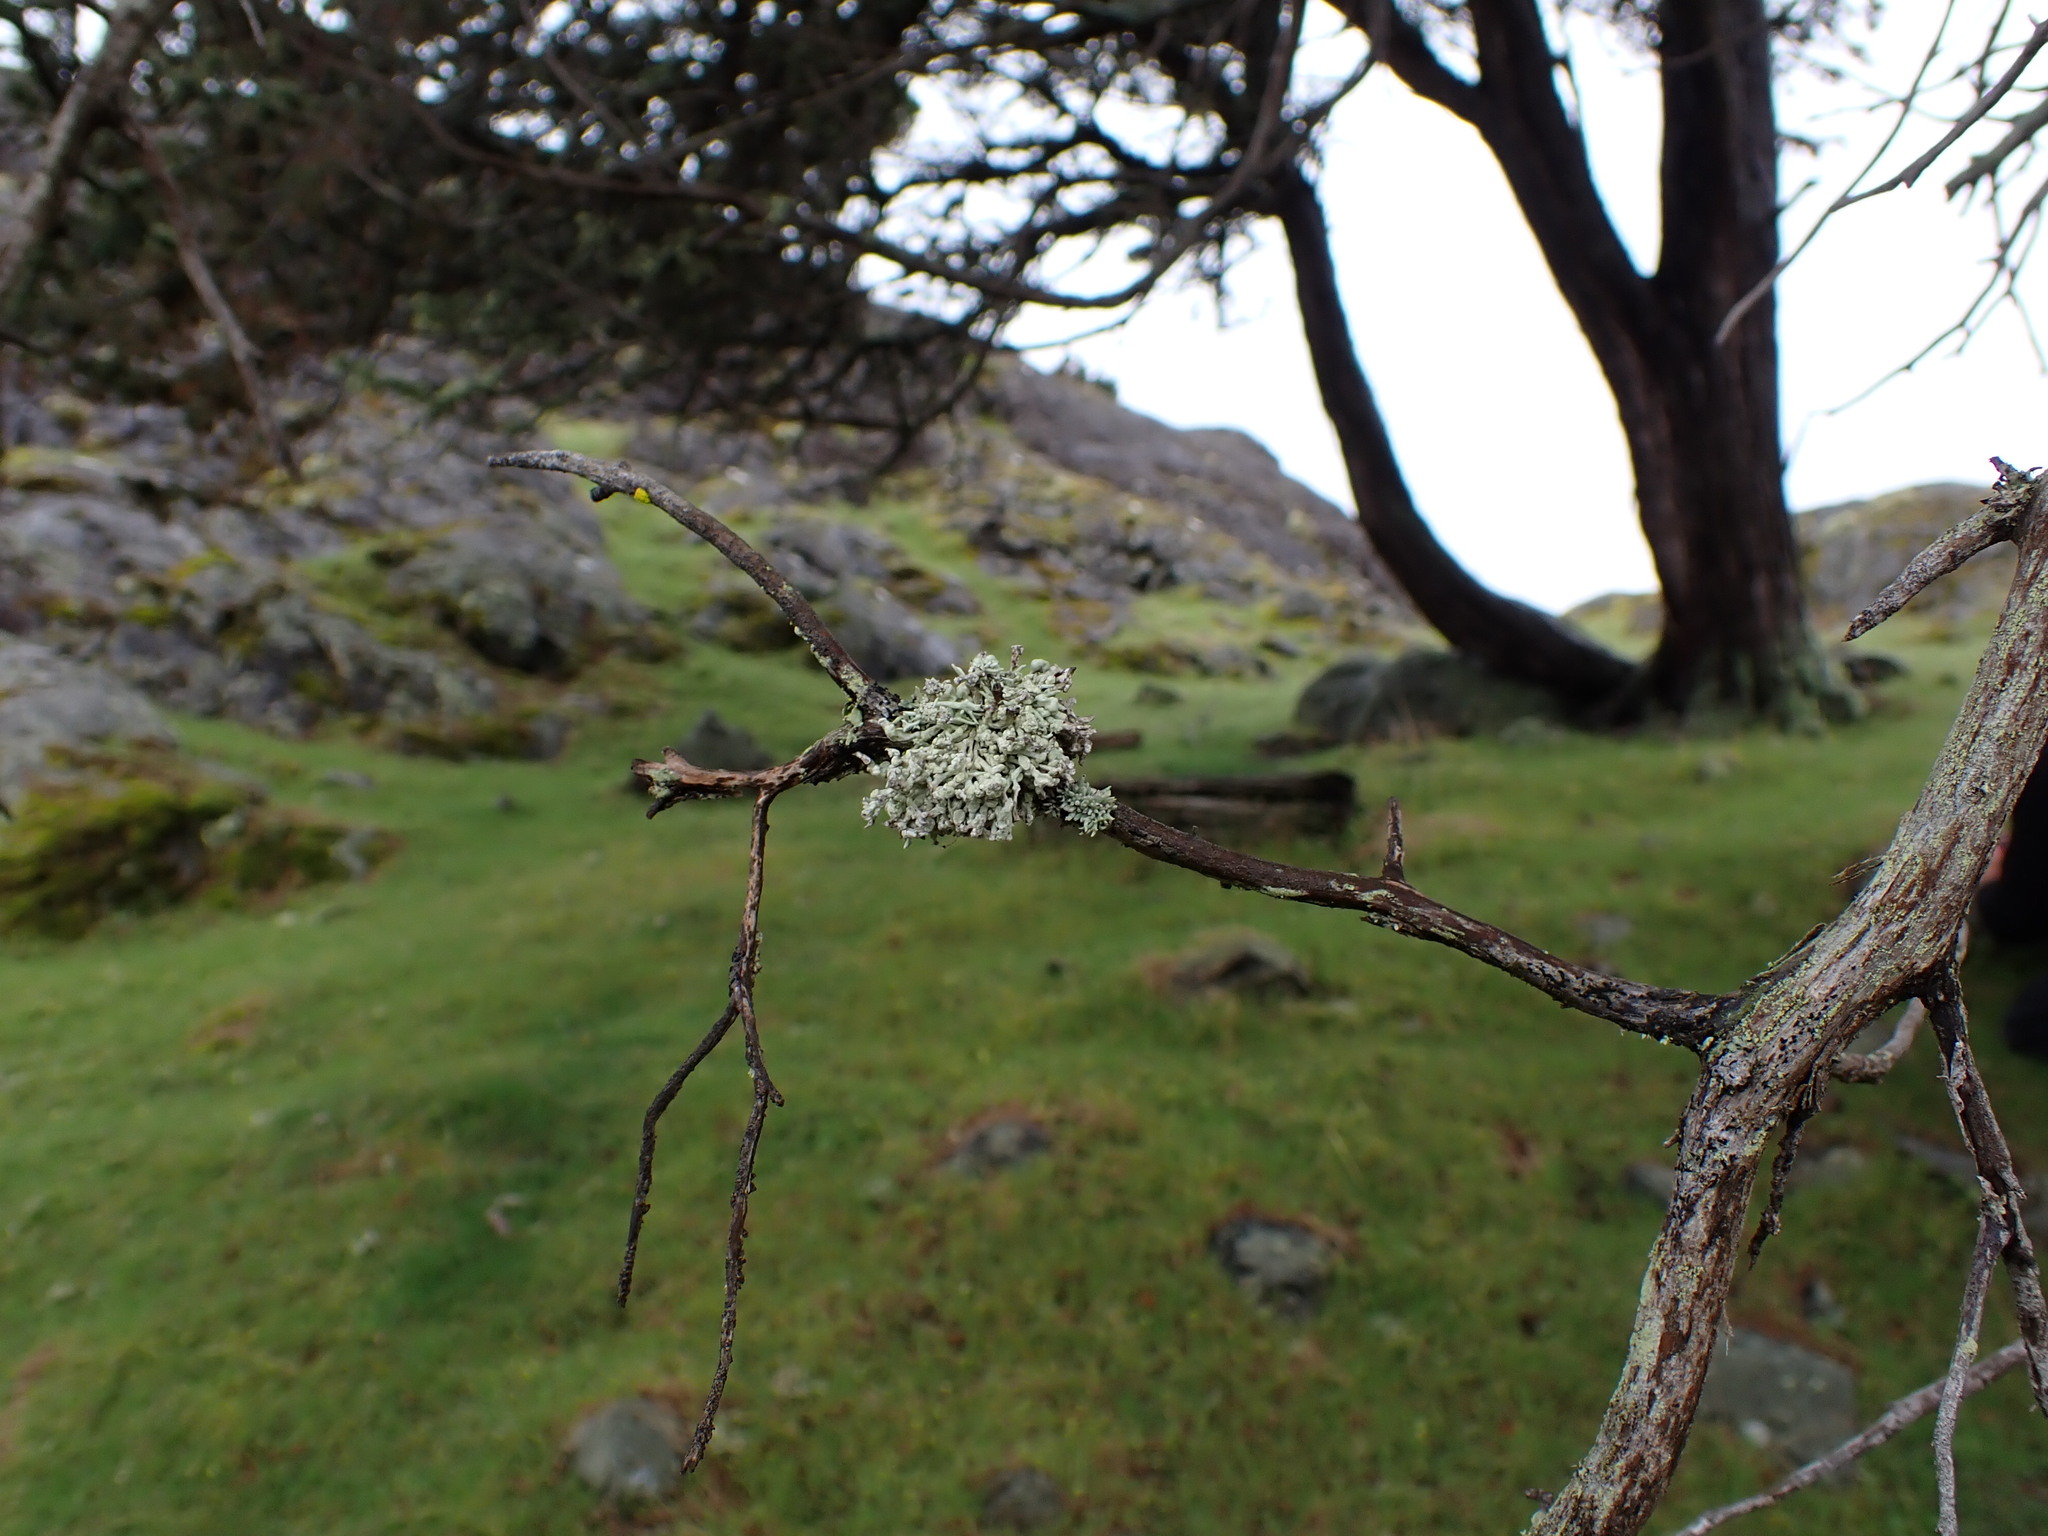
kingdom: Fungi
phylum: Ascomycota
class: Lecanoromycetes
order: Lecanorales
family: Ramalinaceae
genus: Niebla
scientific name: Niebla cephalota
